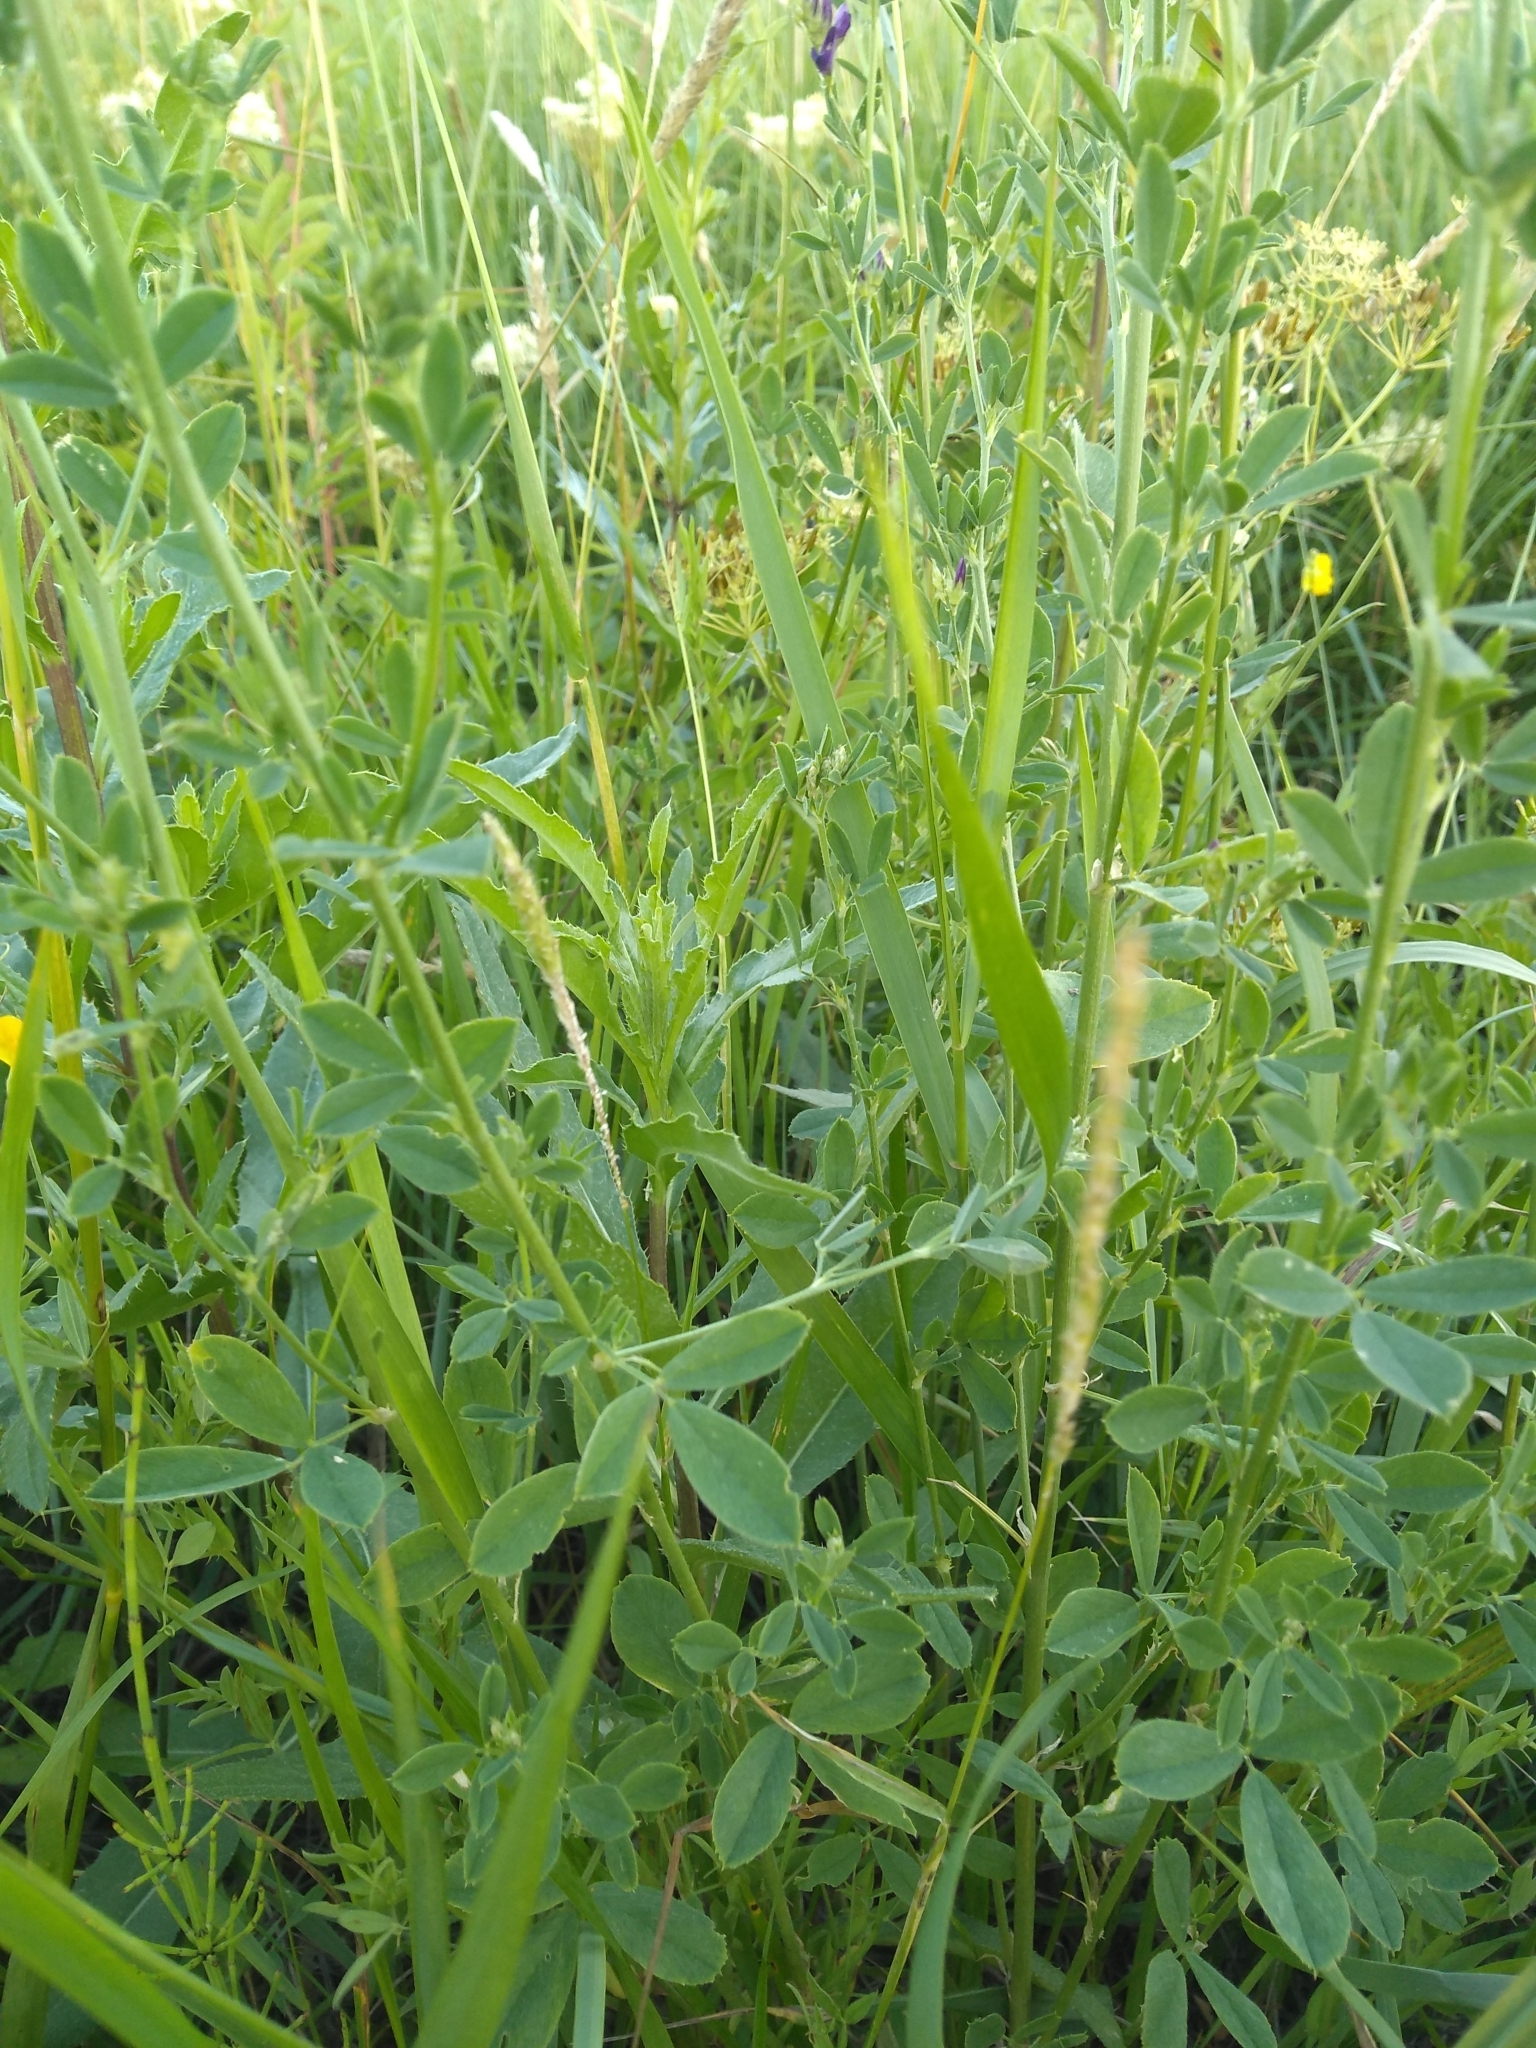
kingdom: Plantae
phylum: Tracheophyta
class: Magnoliopsida
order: Fabales
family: Fabaceae
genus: Medicago
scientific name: Medicago sativa
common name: Alfalfa
